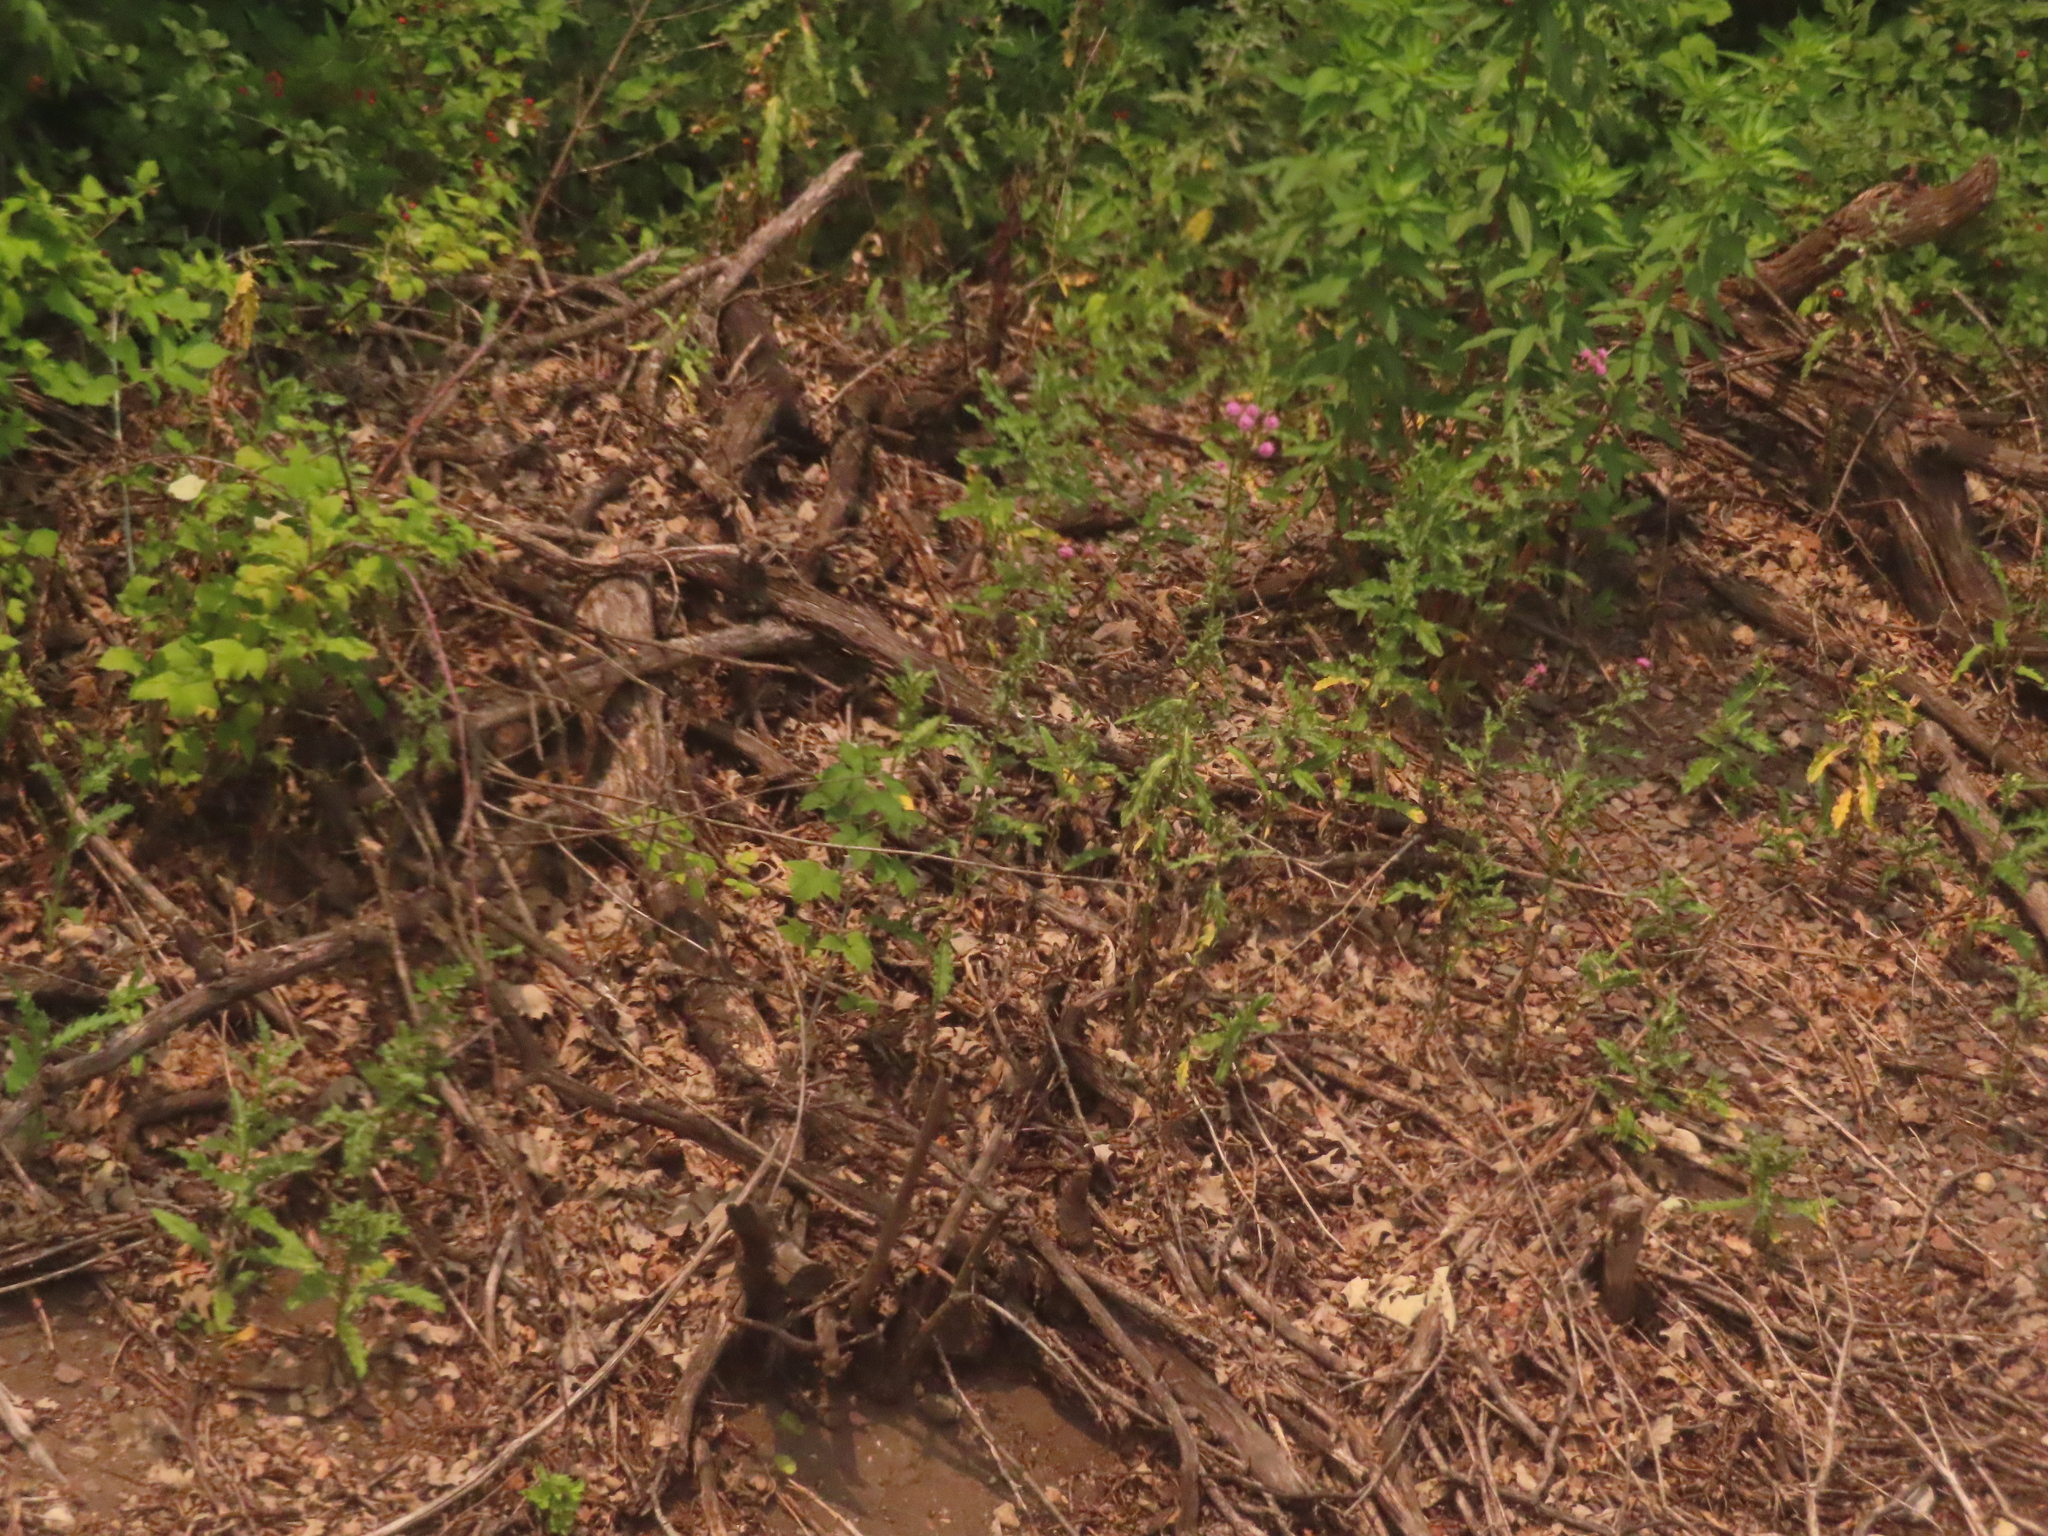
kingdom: Plantae
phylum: Tracheophyta
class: Magnoliopsida
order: Asterales
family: Asteraceae
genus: Cirsium
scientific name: Cirsium arvense
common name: Creeping thistle
